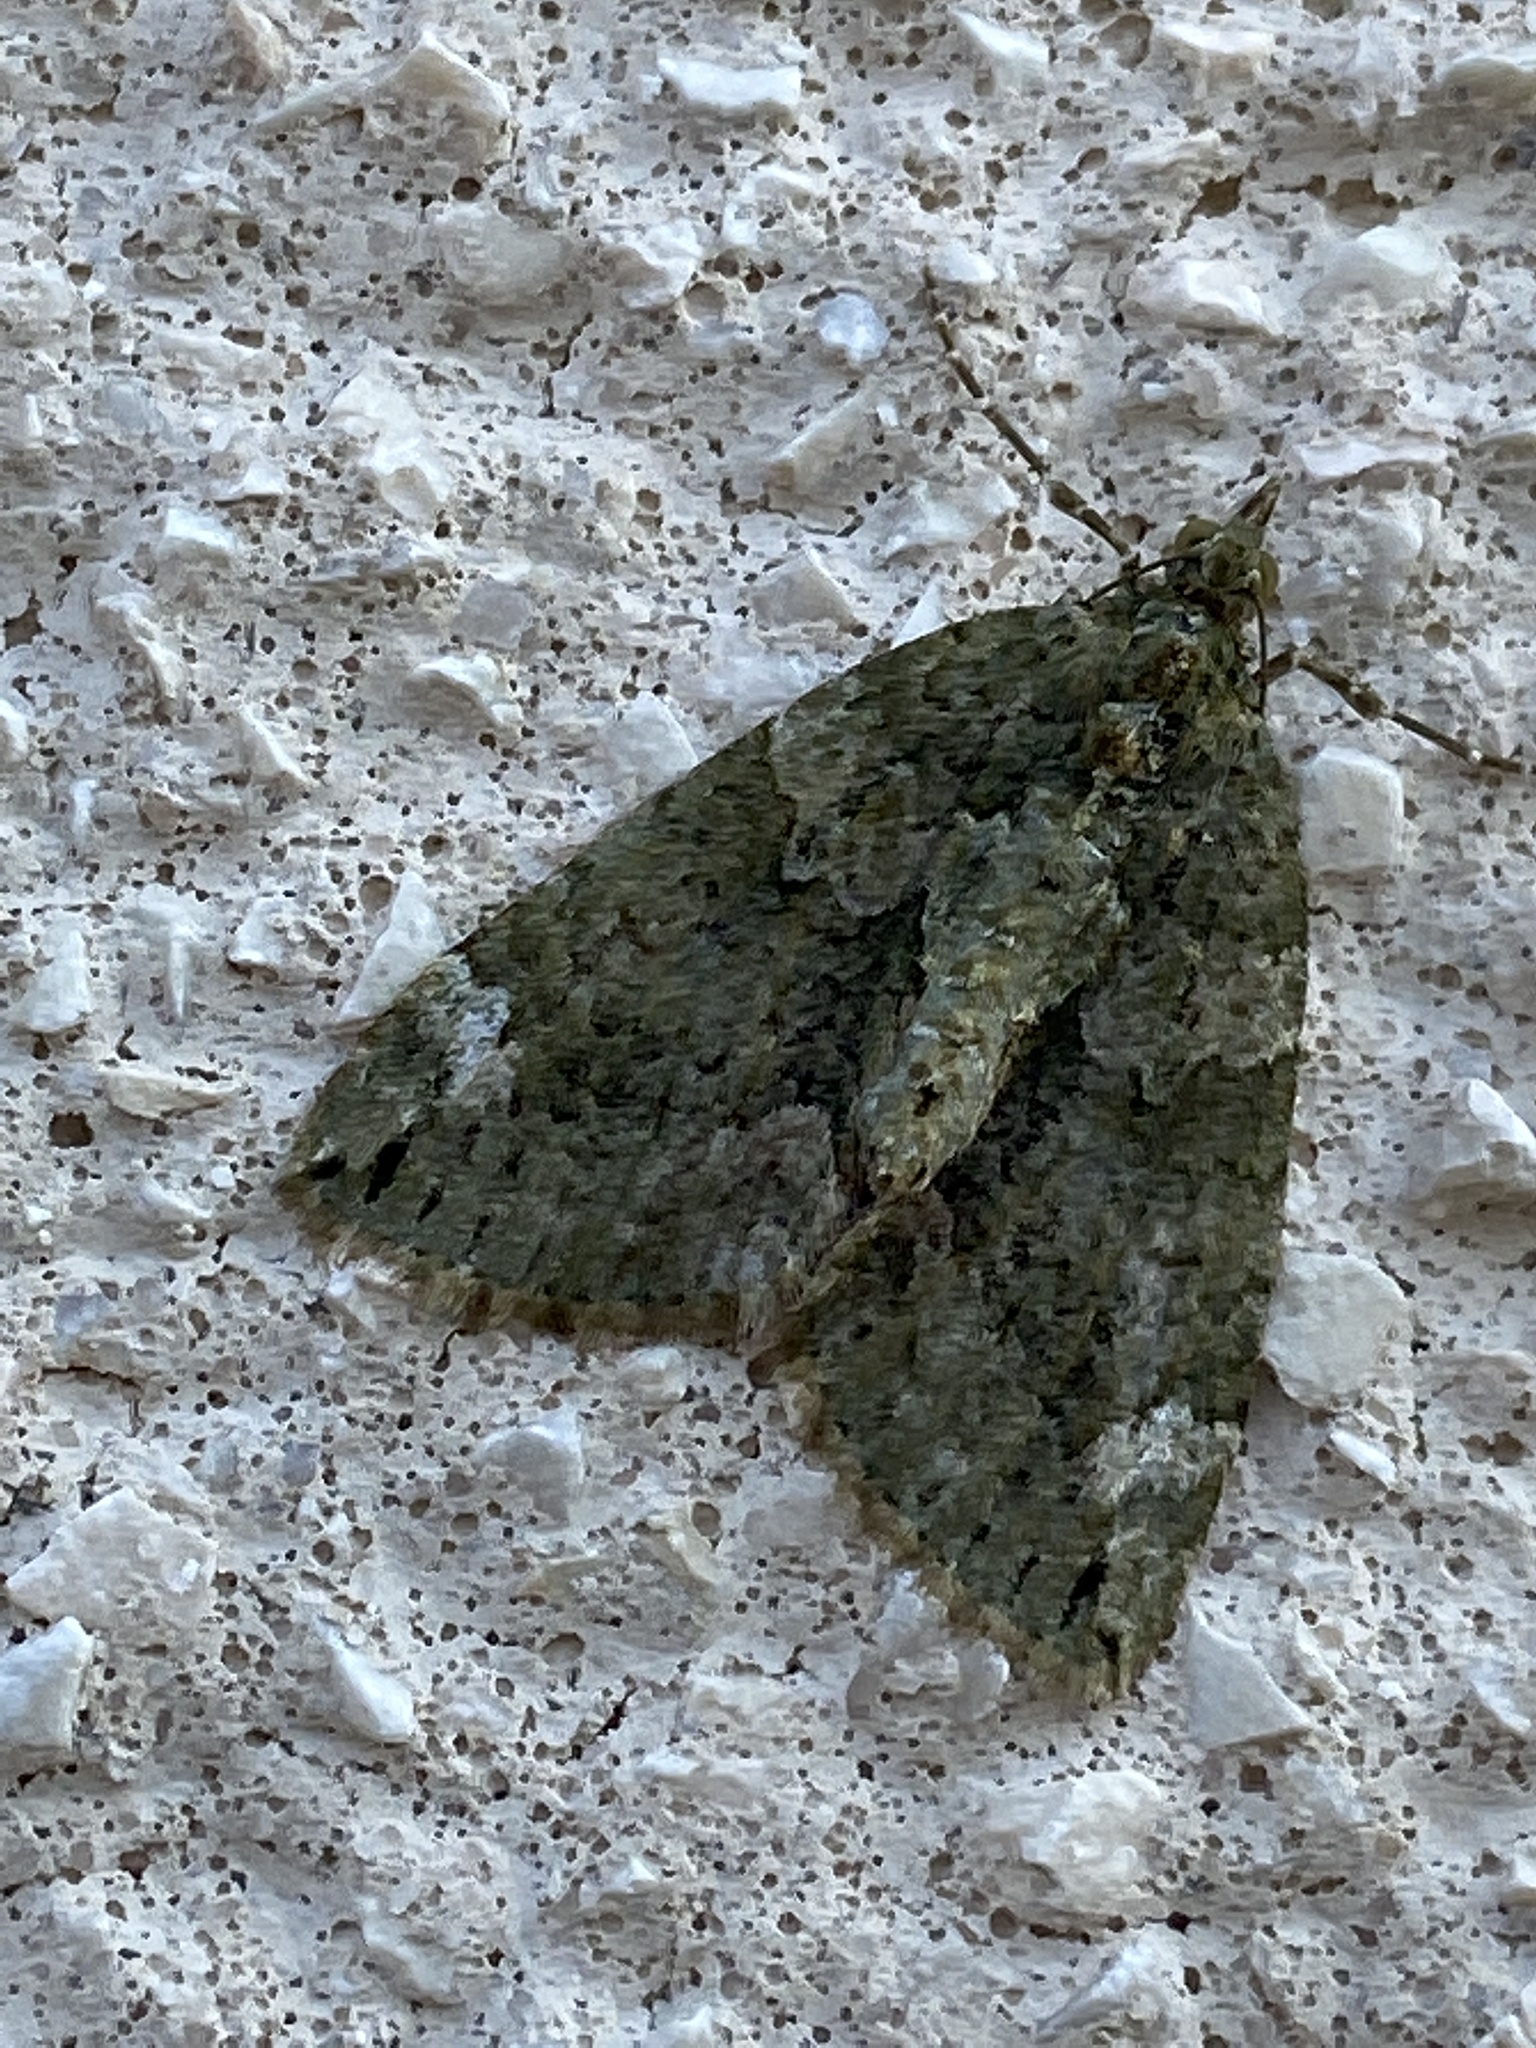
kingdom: Animalia
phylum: Arthropoda
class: Insecta
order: Lepidoptera
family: Geometridae
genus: Chloroclysta
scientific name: Chloroclysta siterata
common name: Red-green carpet
